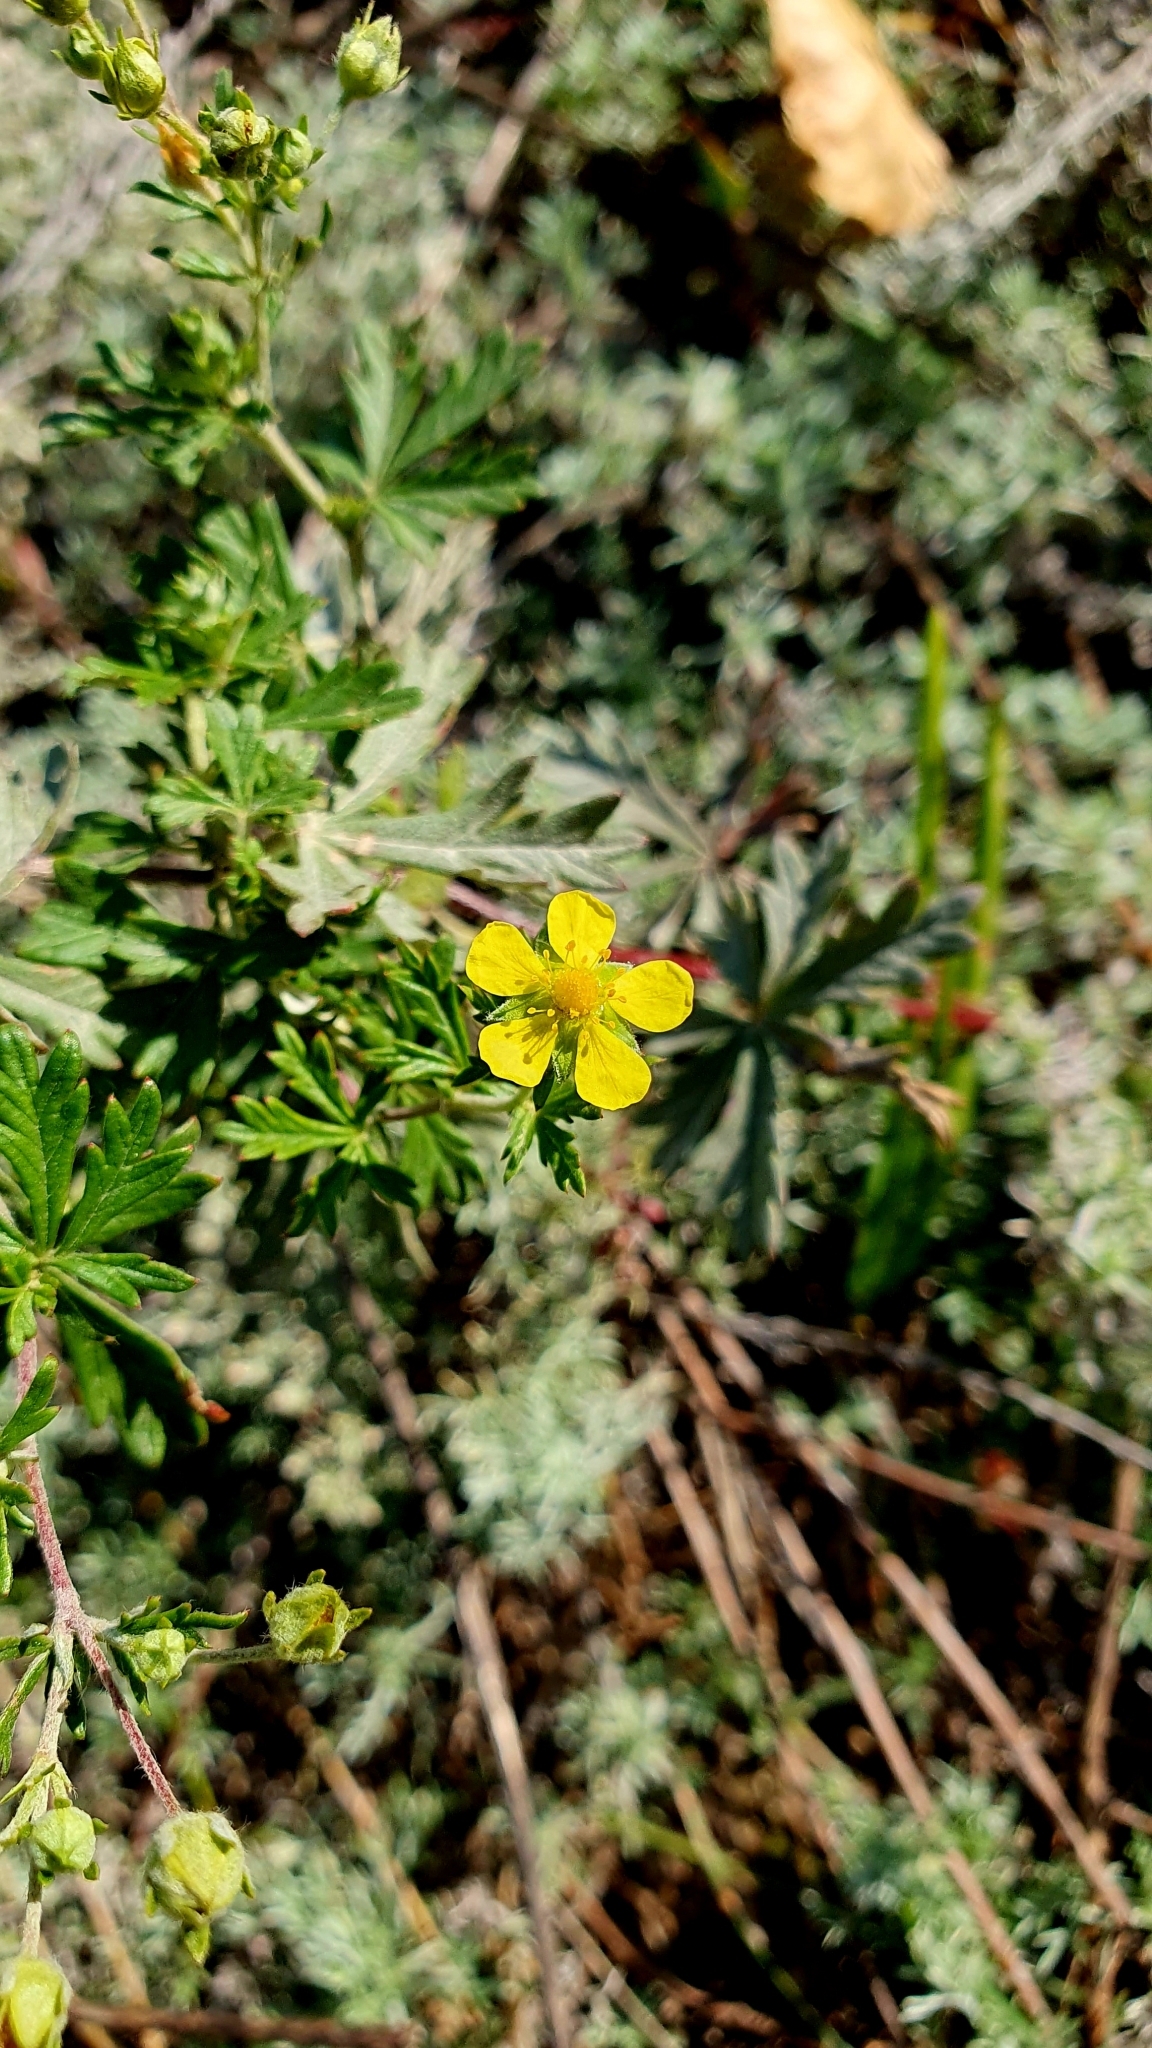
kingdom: Plantae
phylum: Tracheophyta
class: Magnoliopsida
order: Rosales
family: Rosaceae
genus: Potentilla
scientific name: Potentilla argentea
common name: Hoary cinquefoil
